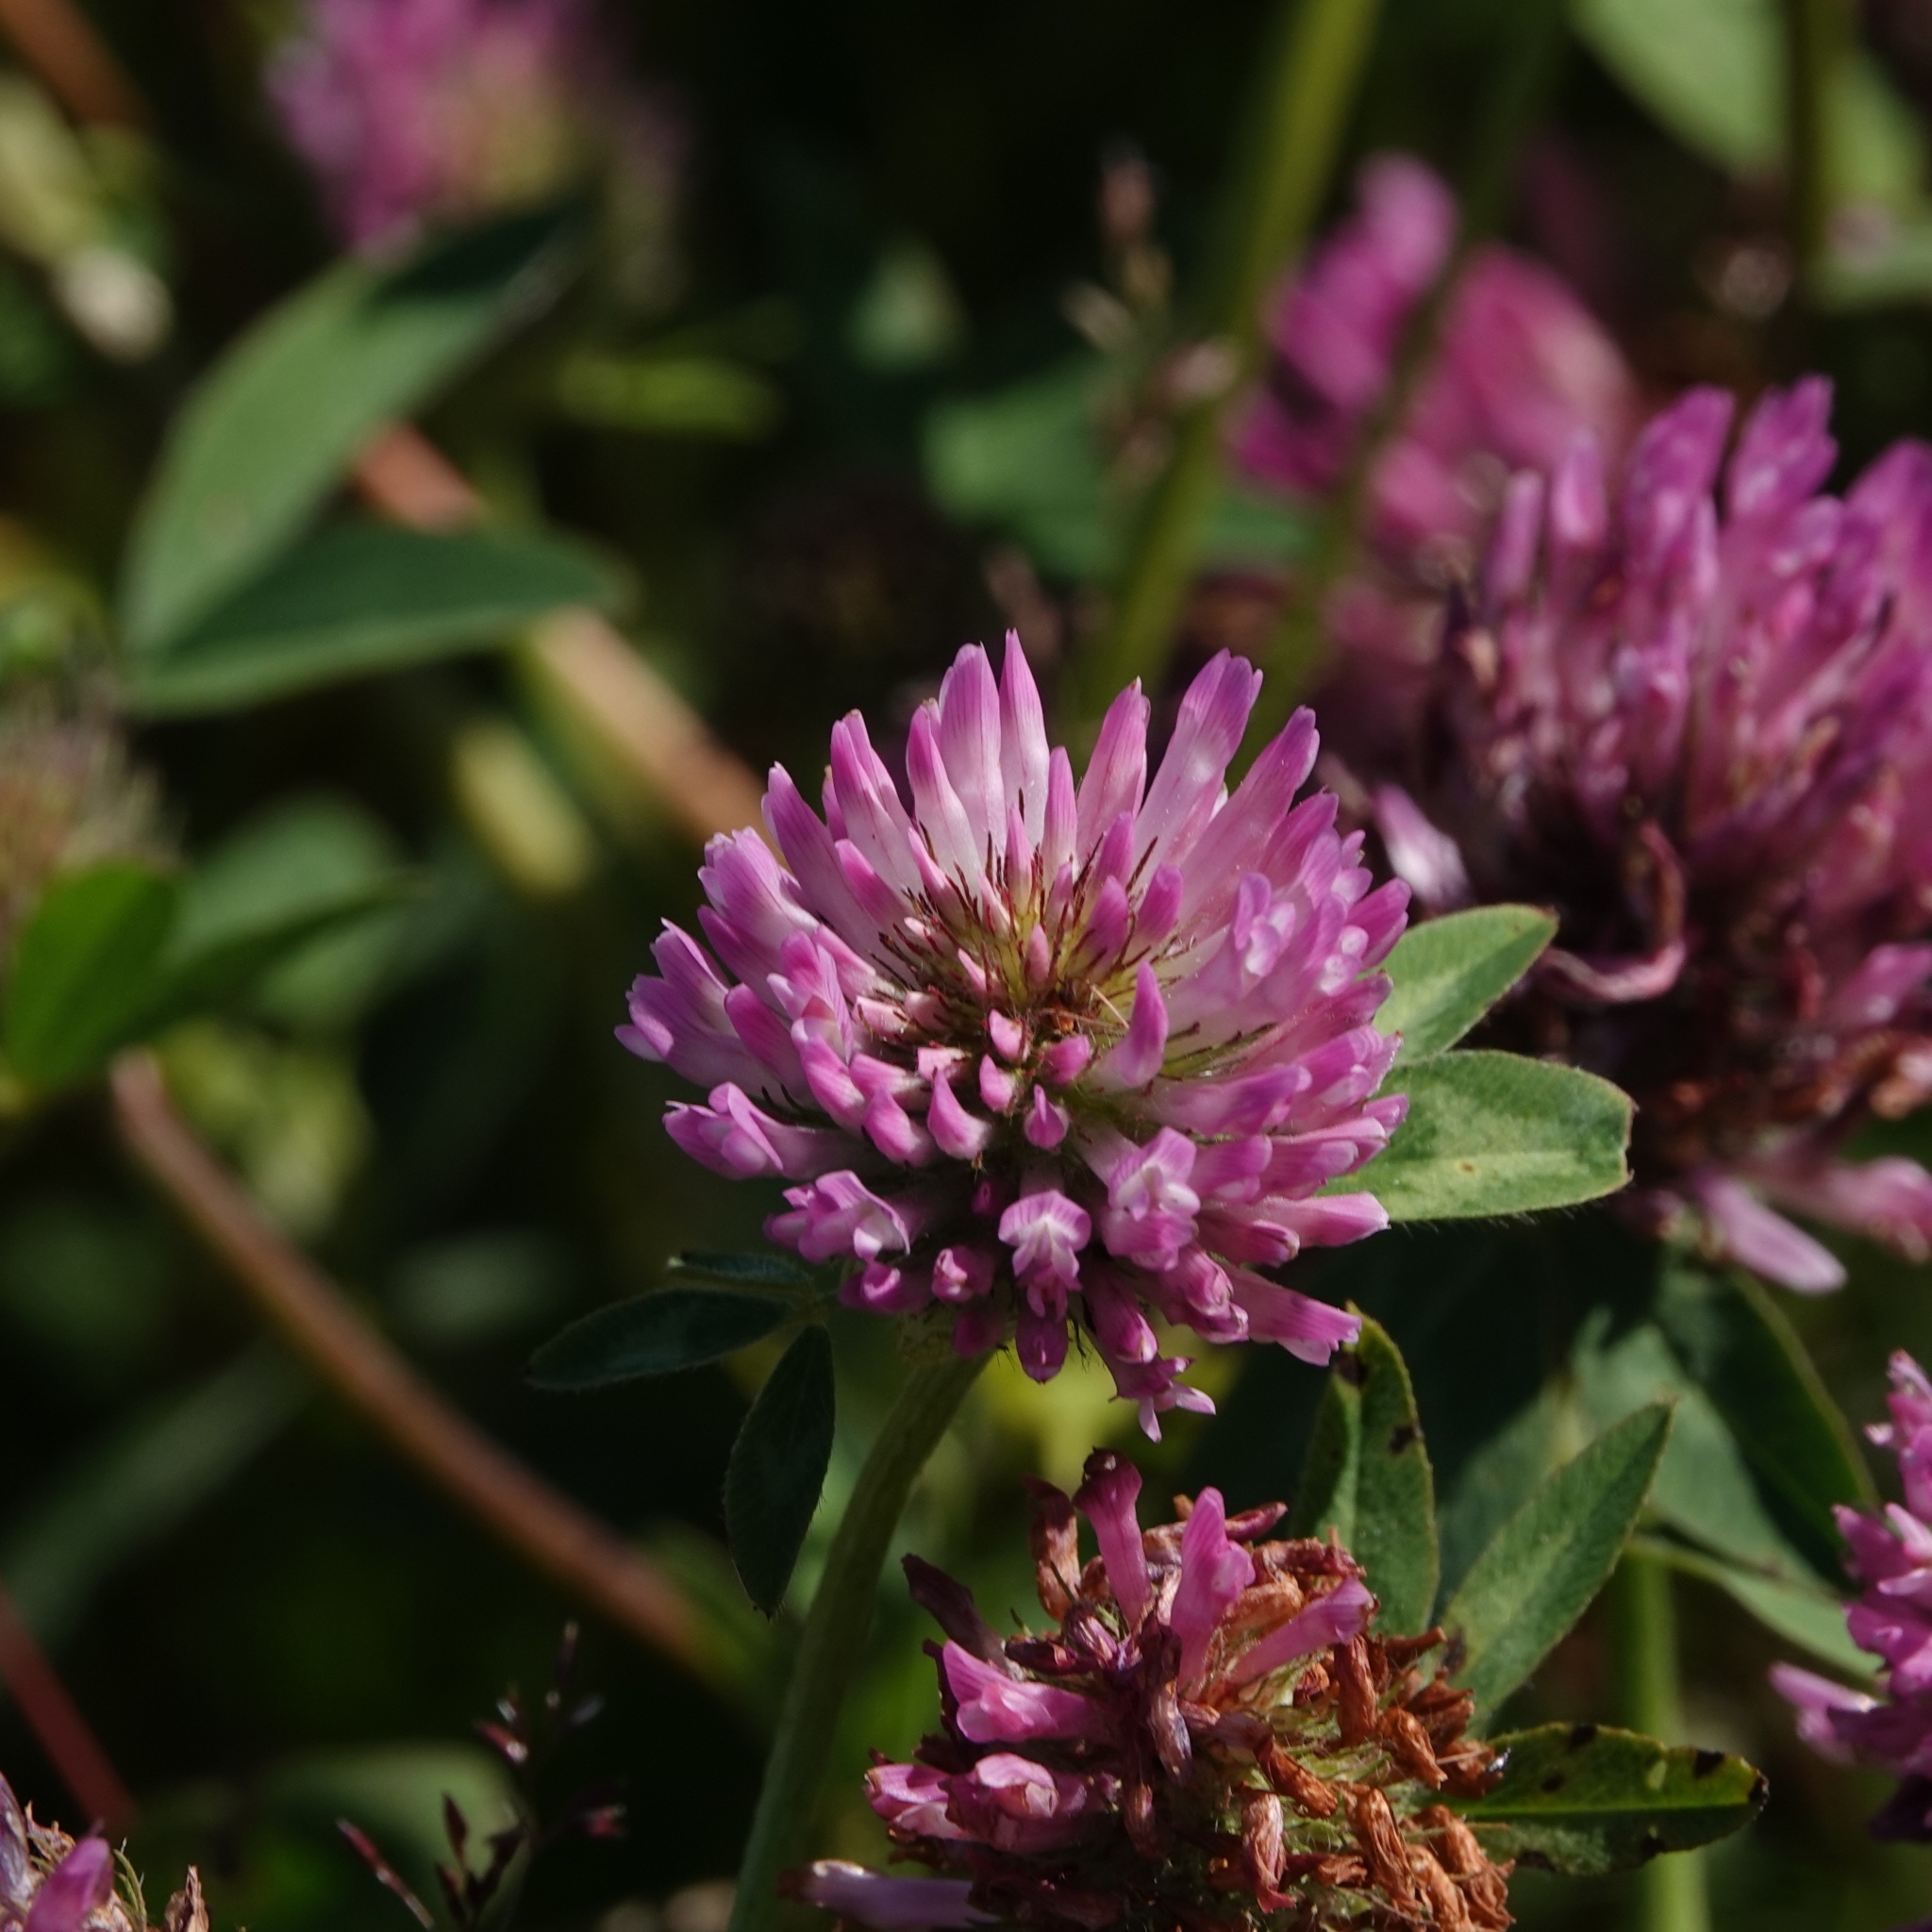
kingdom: Plantae
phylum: Tracheophyta
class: Magnoliopsida
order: Fabales
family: Fabaceae
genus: Trifolium
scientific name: Trifolium pratense
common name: Red clover
